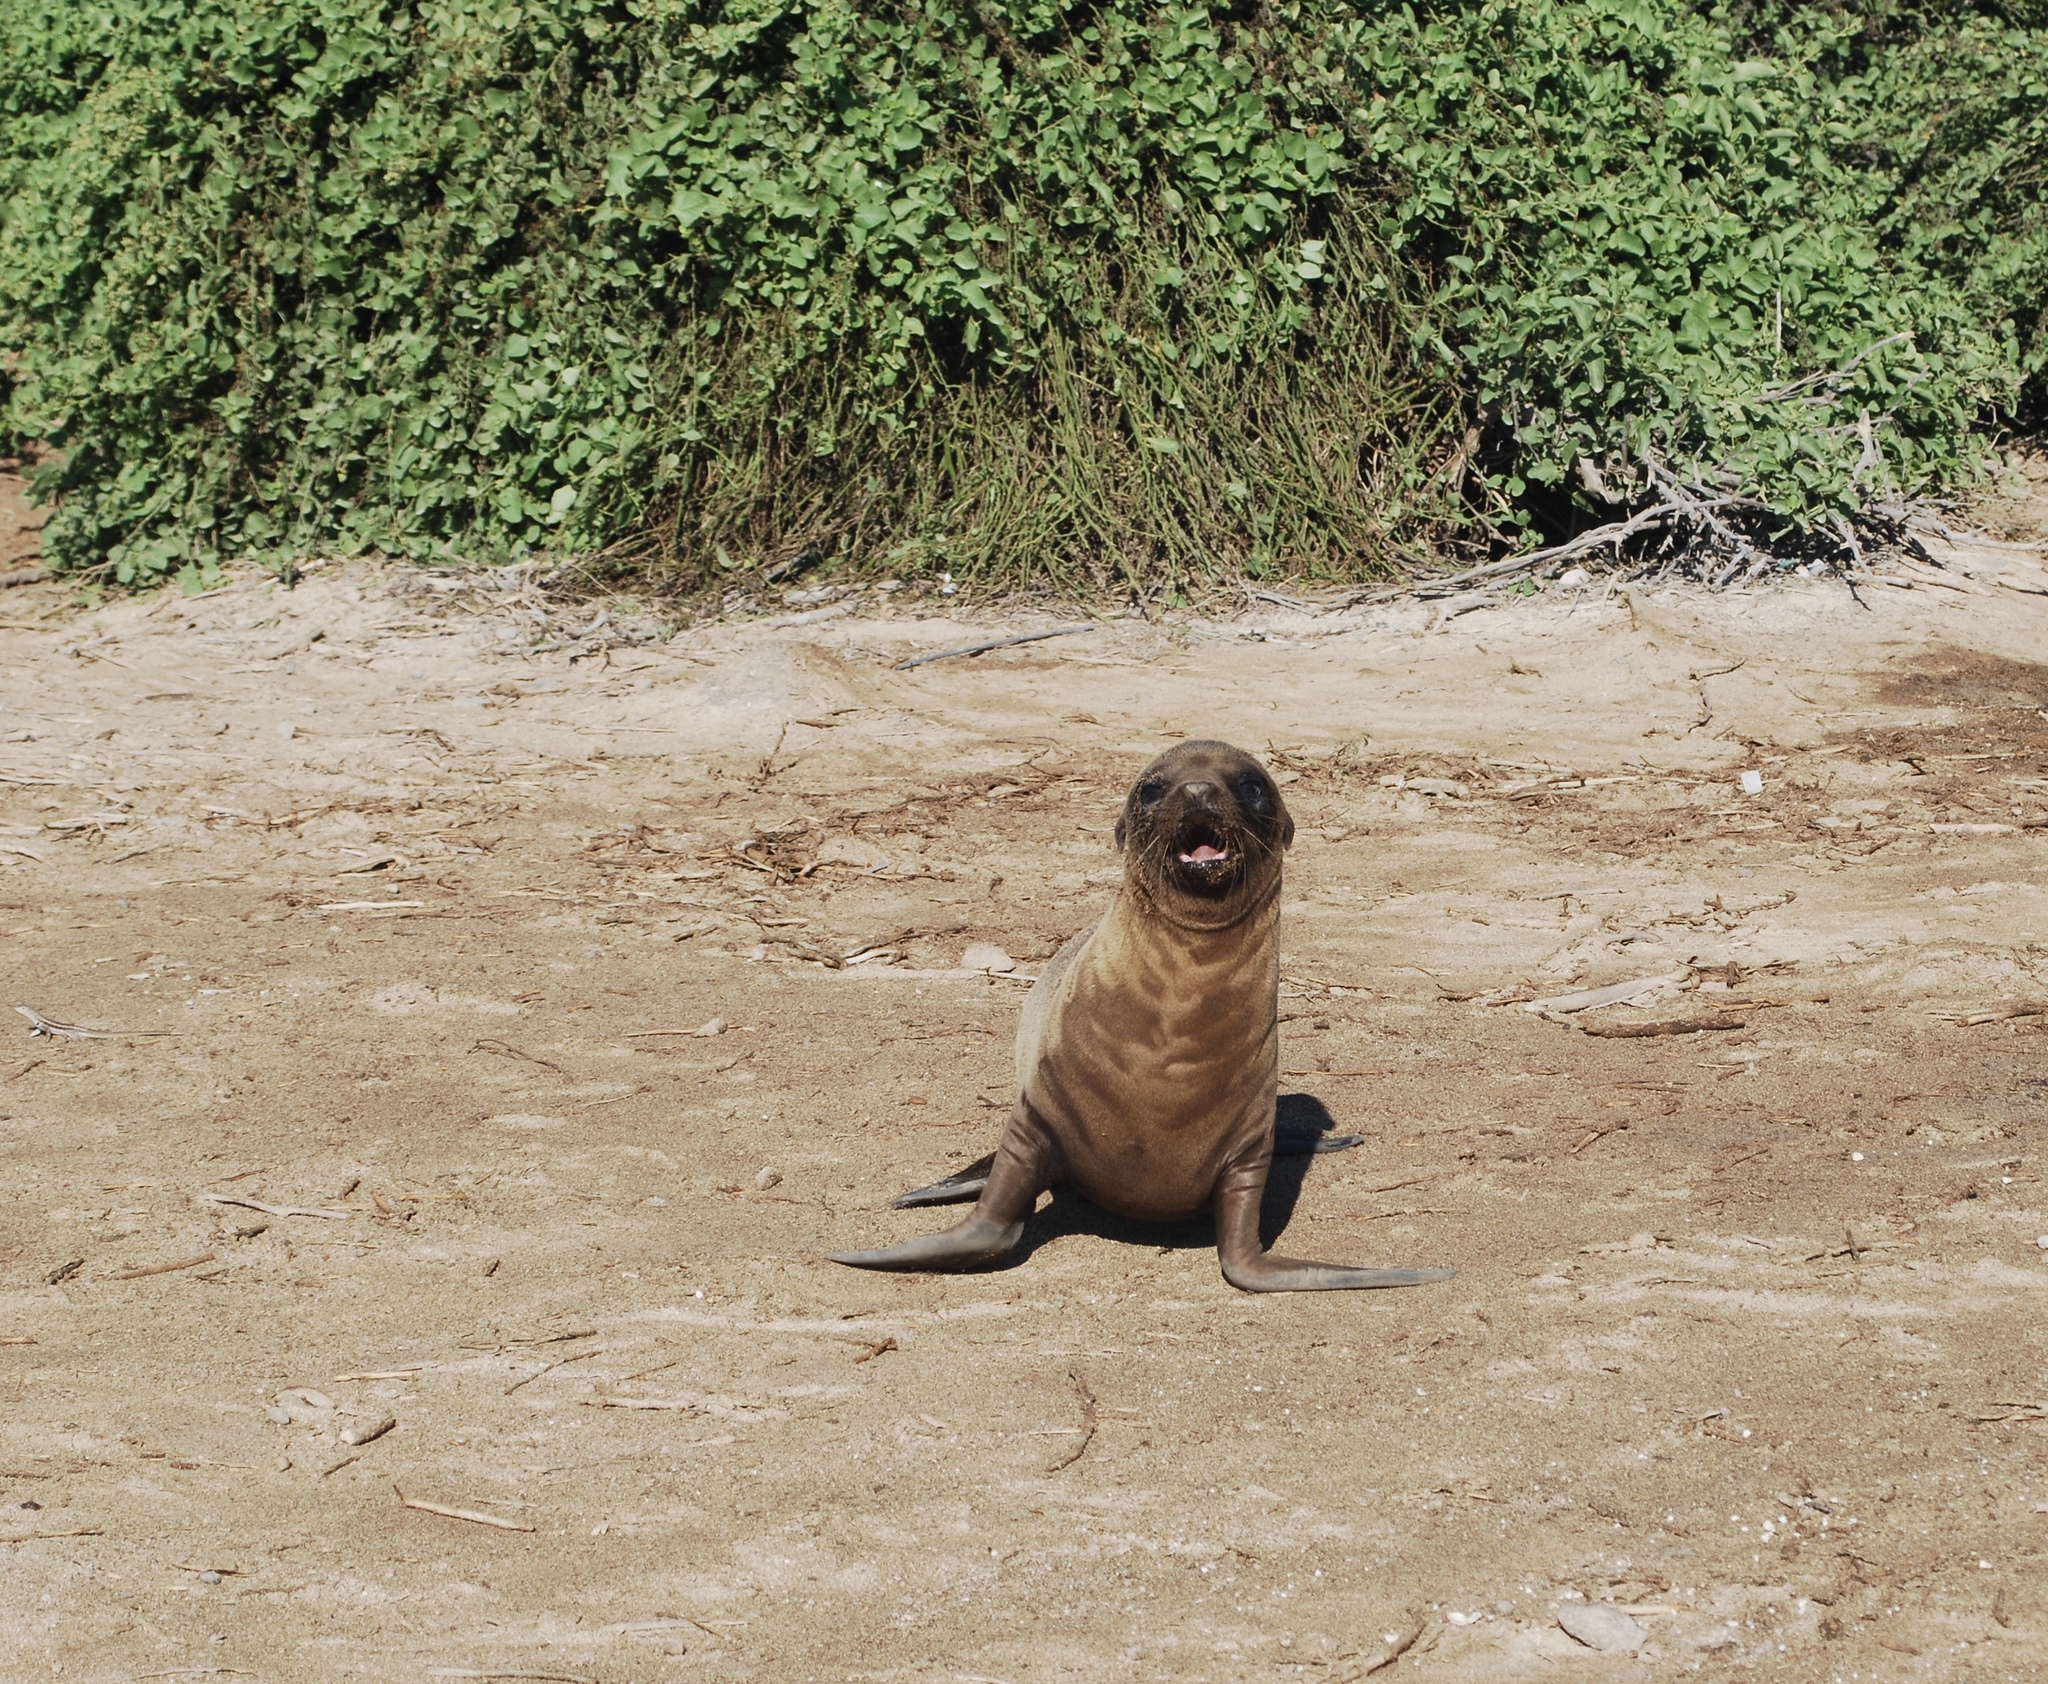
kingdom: Animalia
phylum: Chordata
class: Mammalia
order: Carnivora
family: Otariidae
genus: Zalophus
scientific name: Zalophus wollebaeki
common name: Galapagos sea lion
